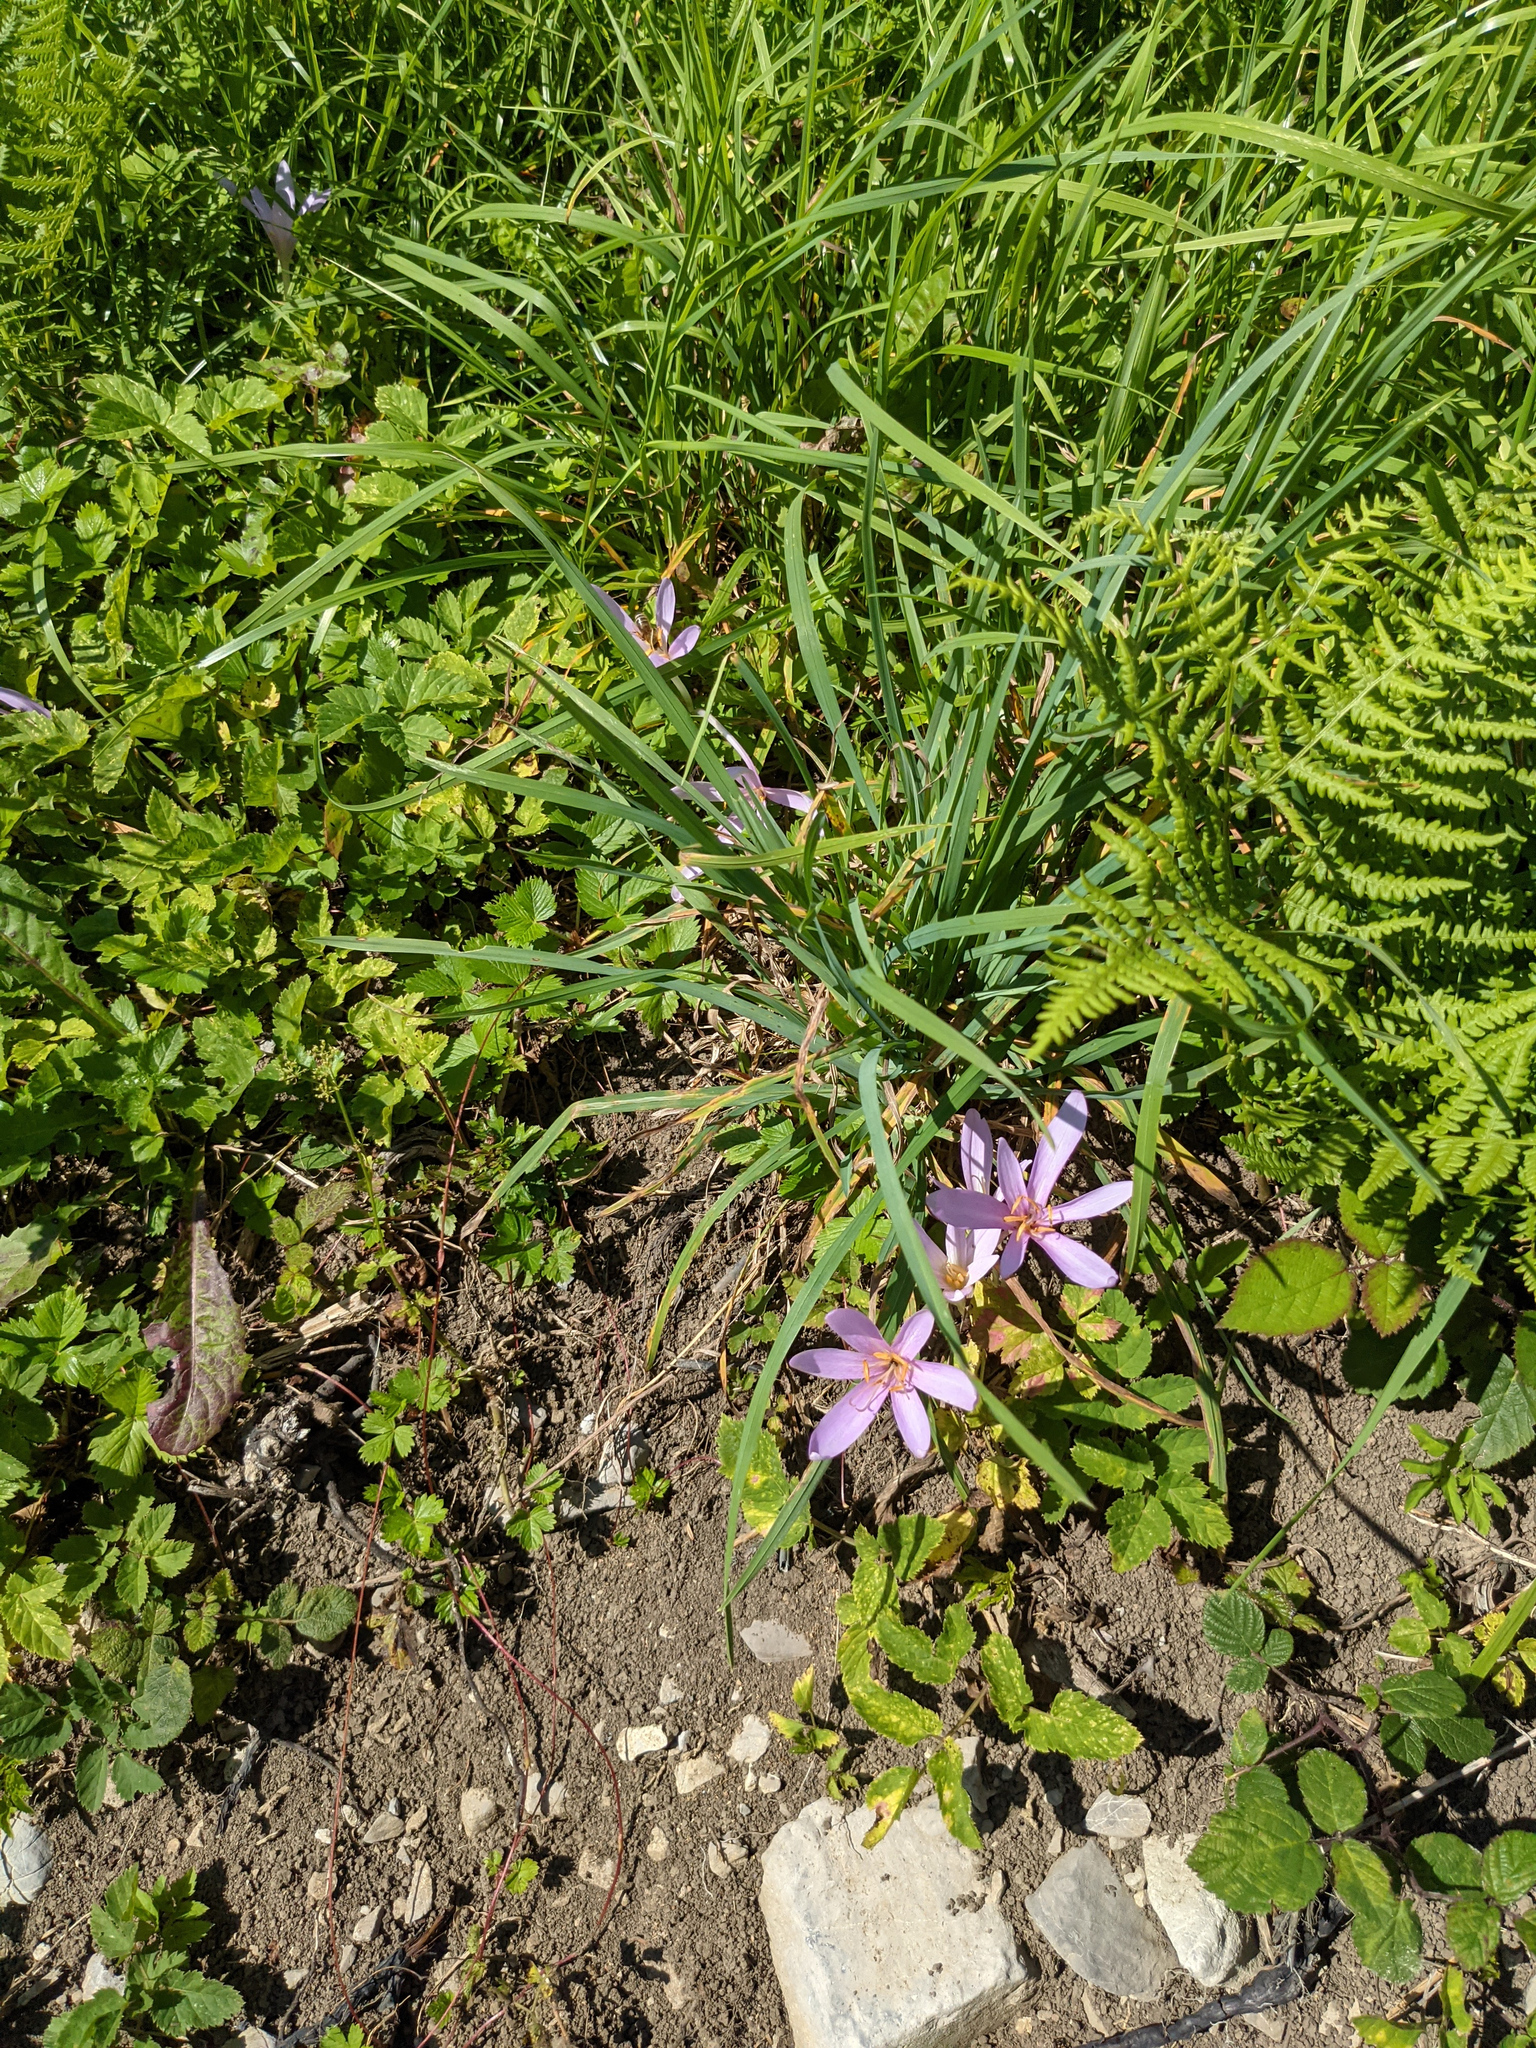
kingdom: Plantae
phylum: Tracheophyta
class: Liliopsida
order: Liliales
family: Colchicaceae
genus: Colchicum
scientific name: Colchicum autumnale
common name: Autumn crocus
